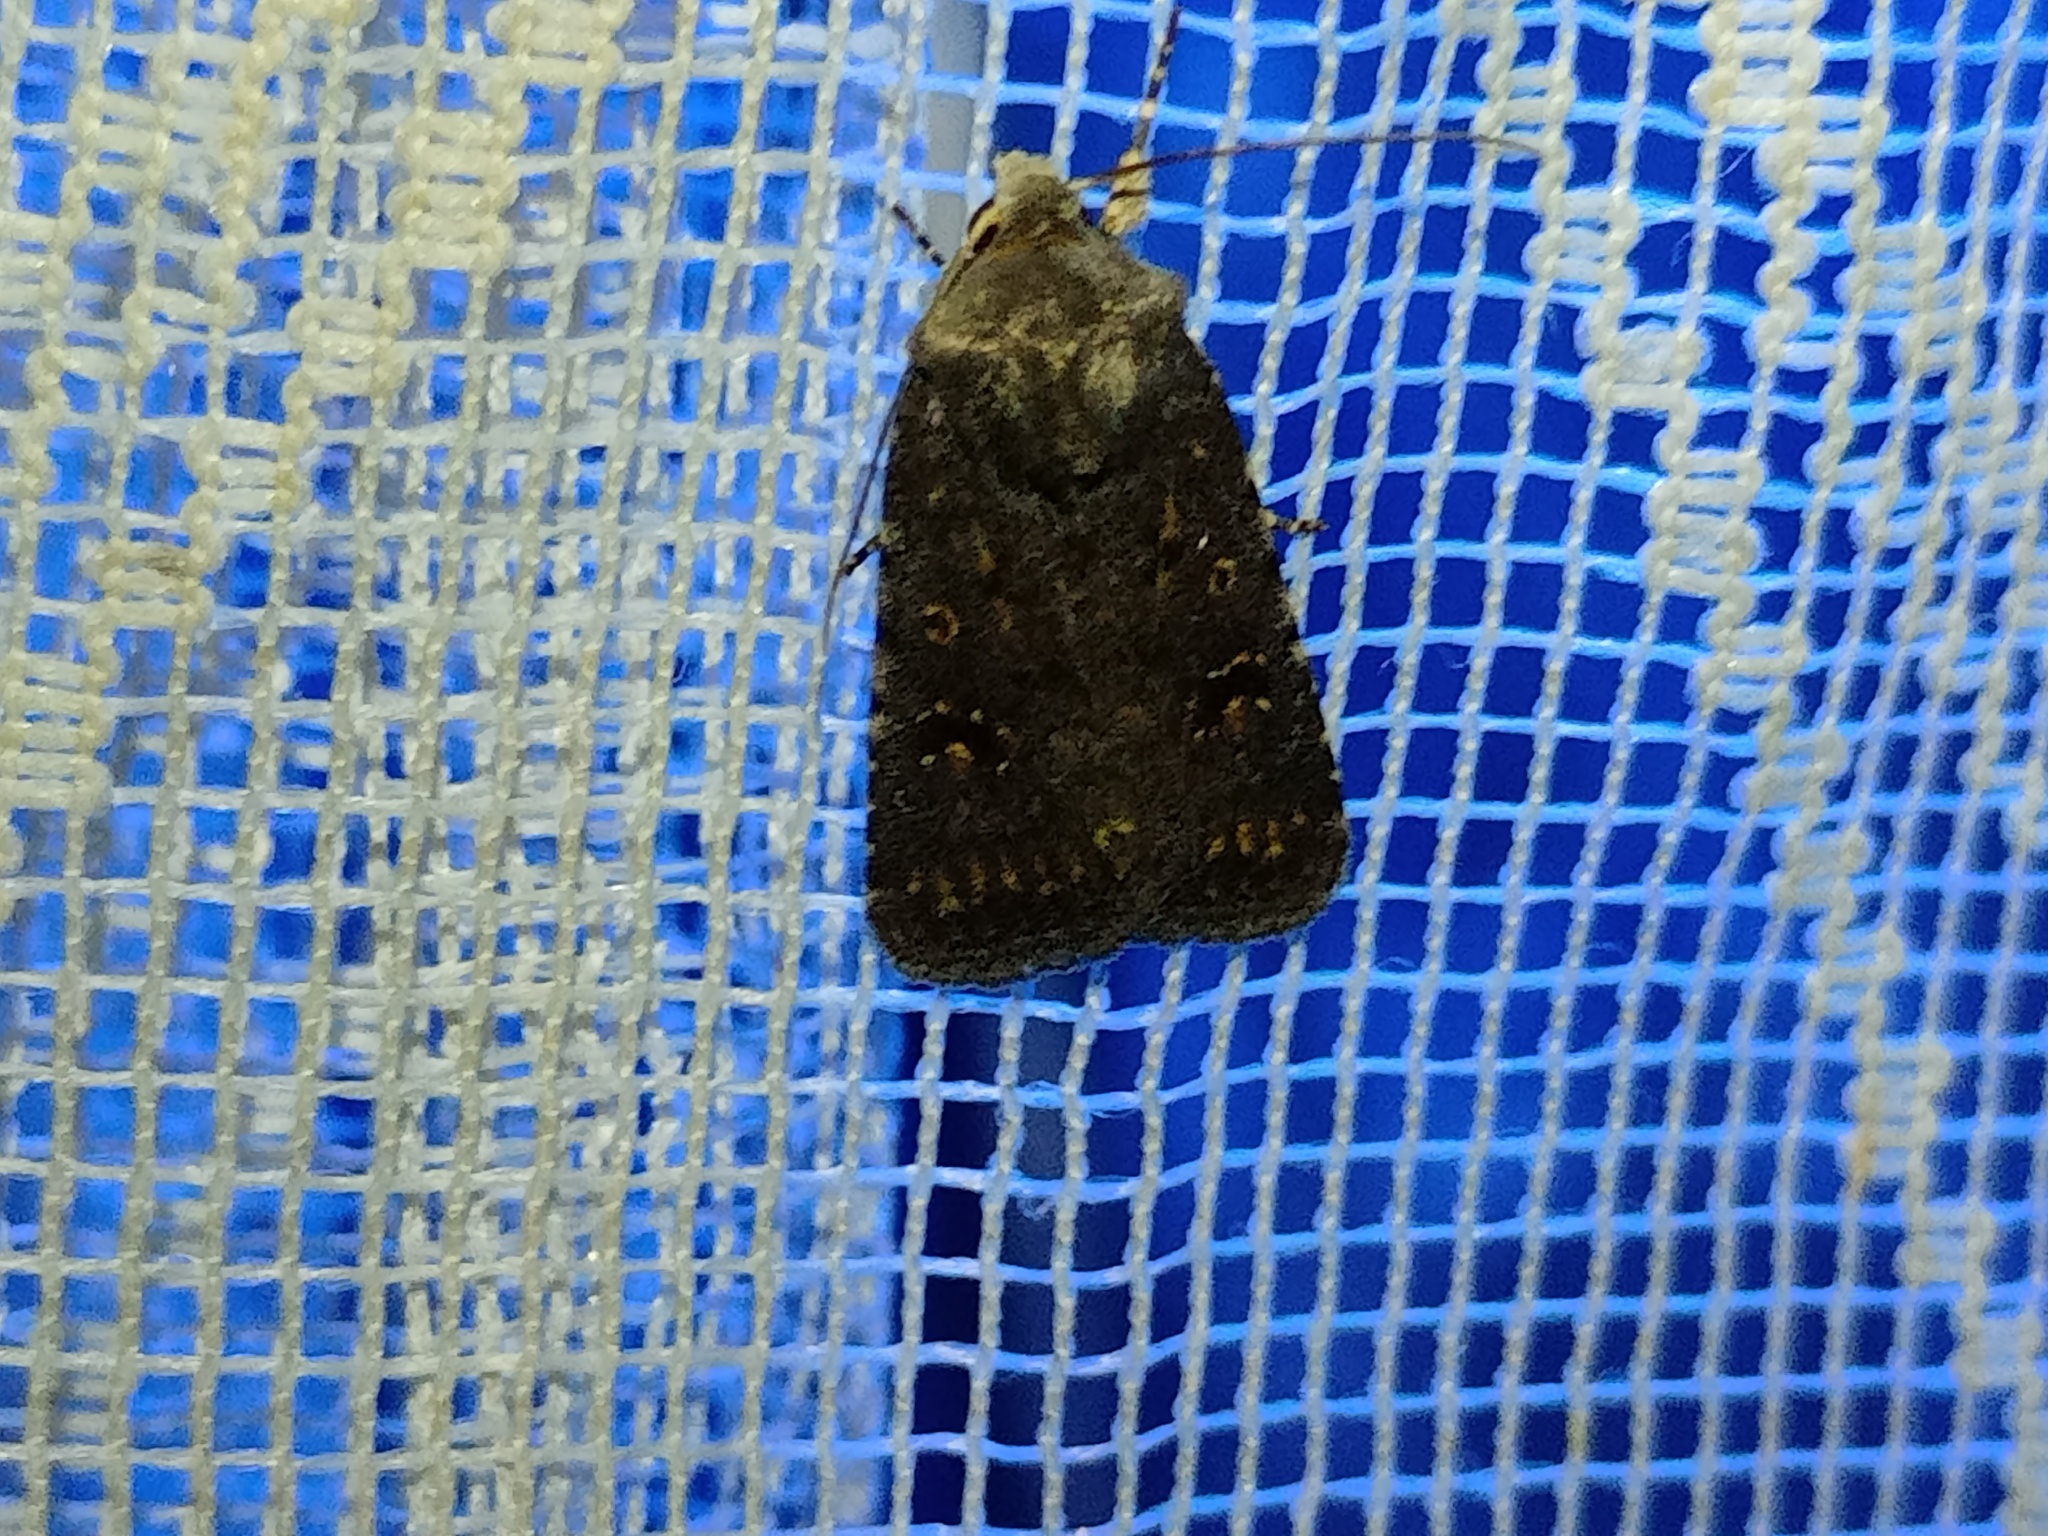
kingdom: Animalia
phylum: Arthropoda
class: Insecta
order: Lepidoptera
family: Noctuidae
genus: Caradrina
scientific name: Caradrina rebeli
